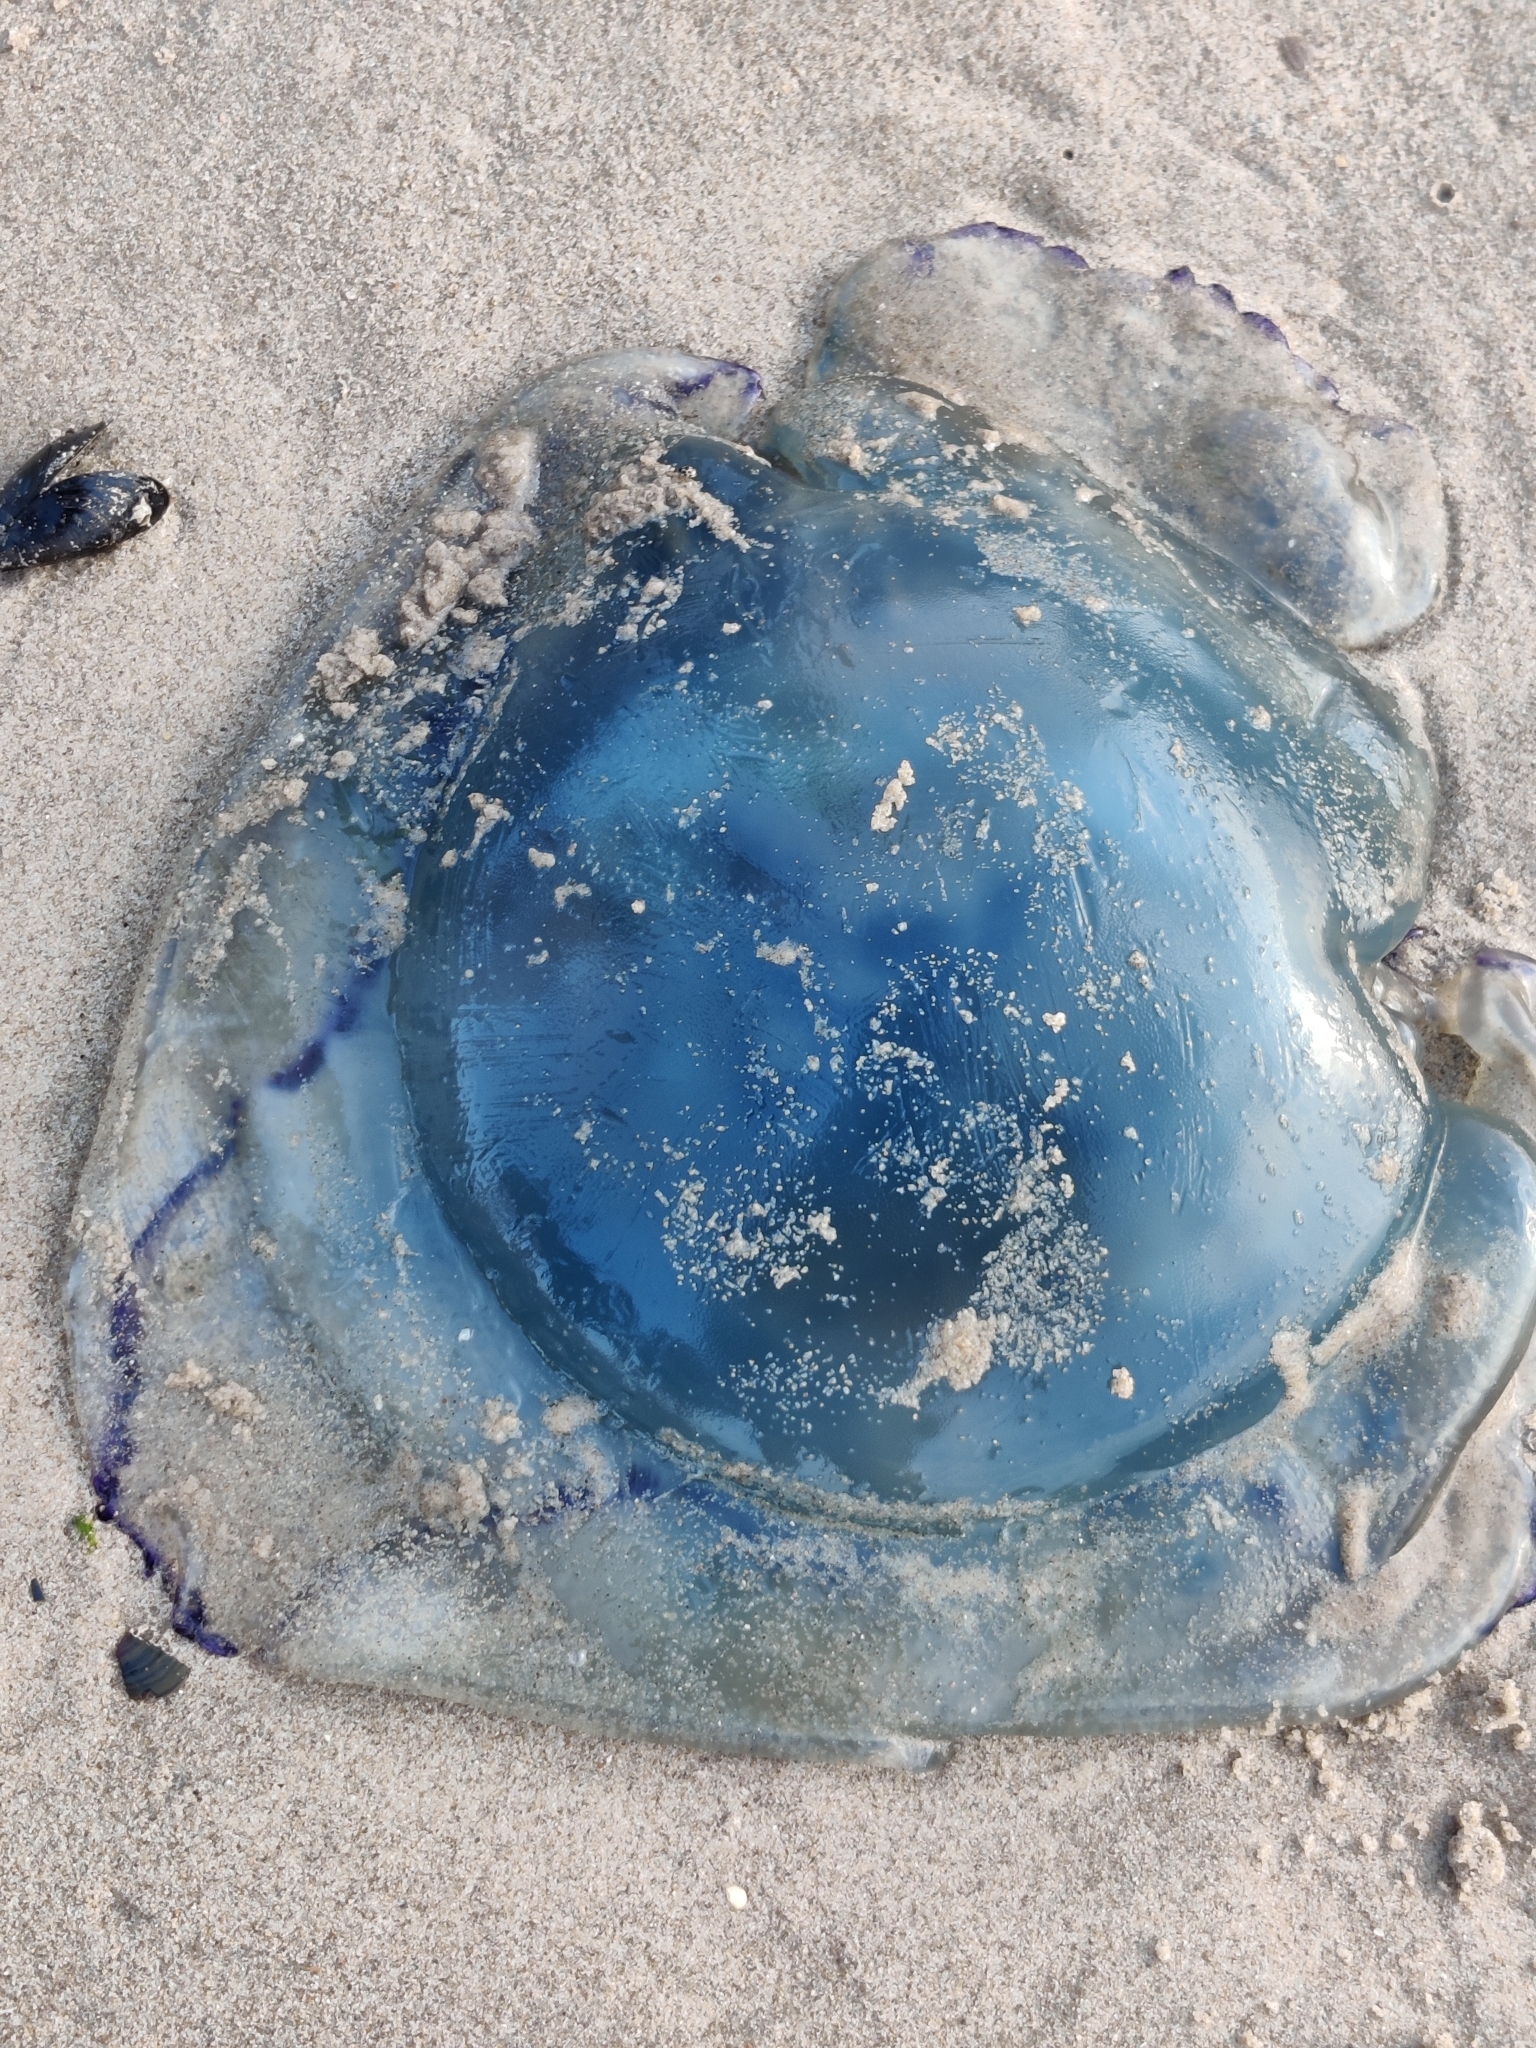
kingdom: Animalia
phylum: Cnidaria
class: Scyphozoa
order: Rhizostomeae
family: Rhizostomatidae
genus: Rhizostoma
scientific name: Rhizostoma octopus
